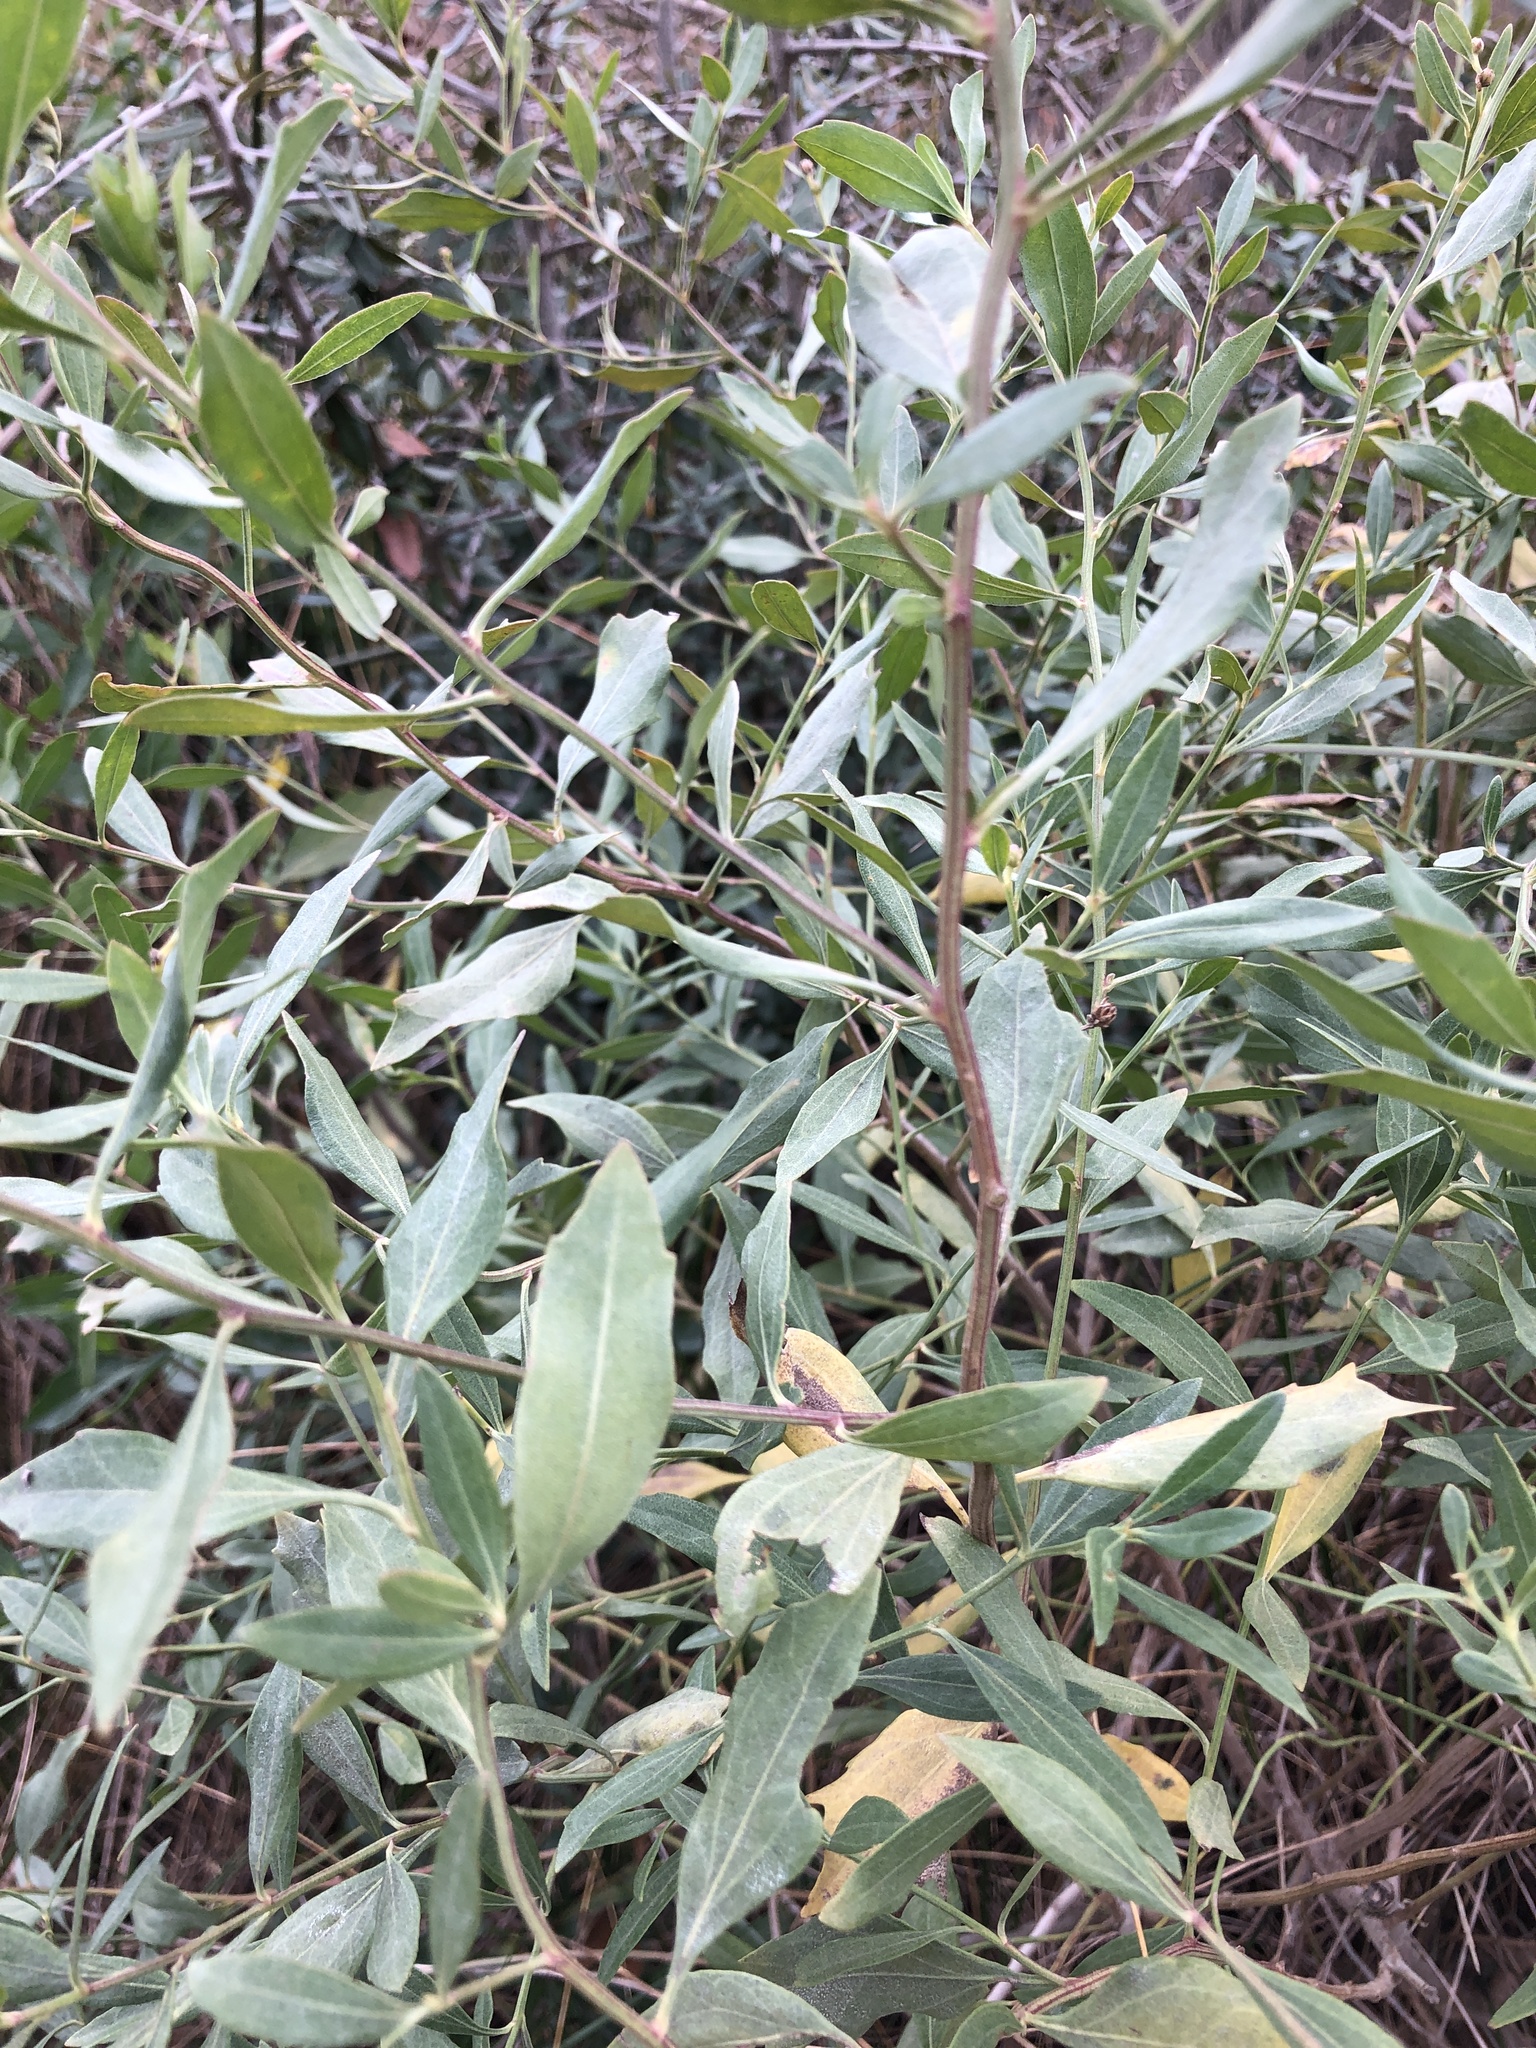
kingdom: Plantae
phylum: Tracheophyta
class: Magnoliopsida
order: Asterales
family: Asteraceae
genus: Baccharis
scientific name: Baccharis halimifolia
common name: Eastern baccharis
